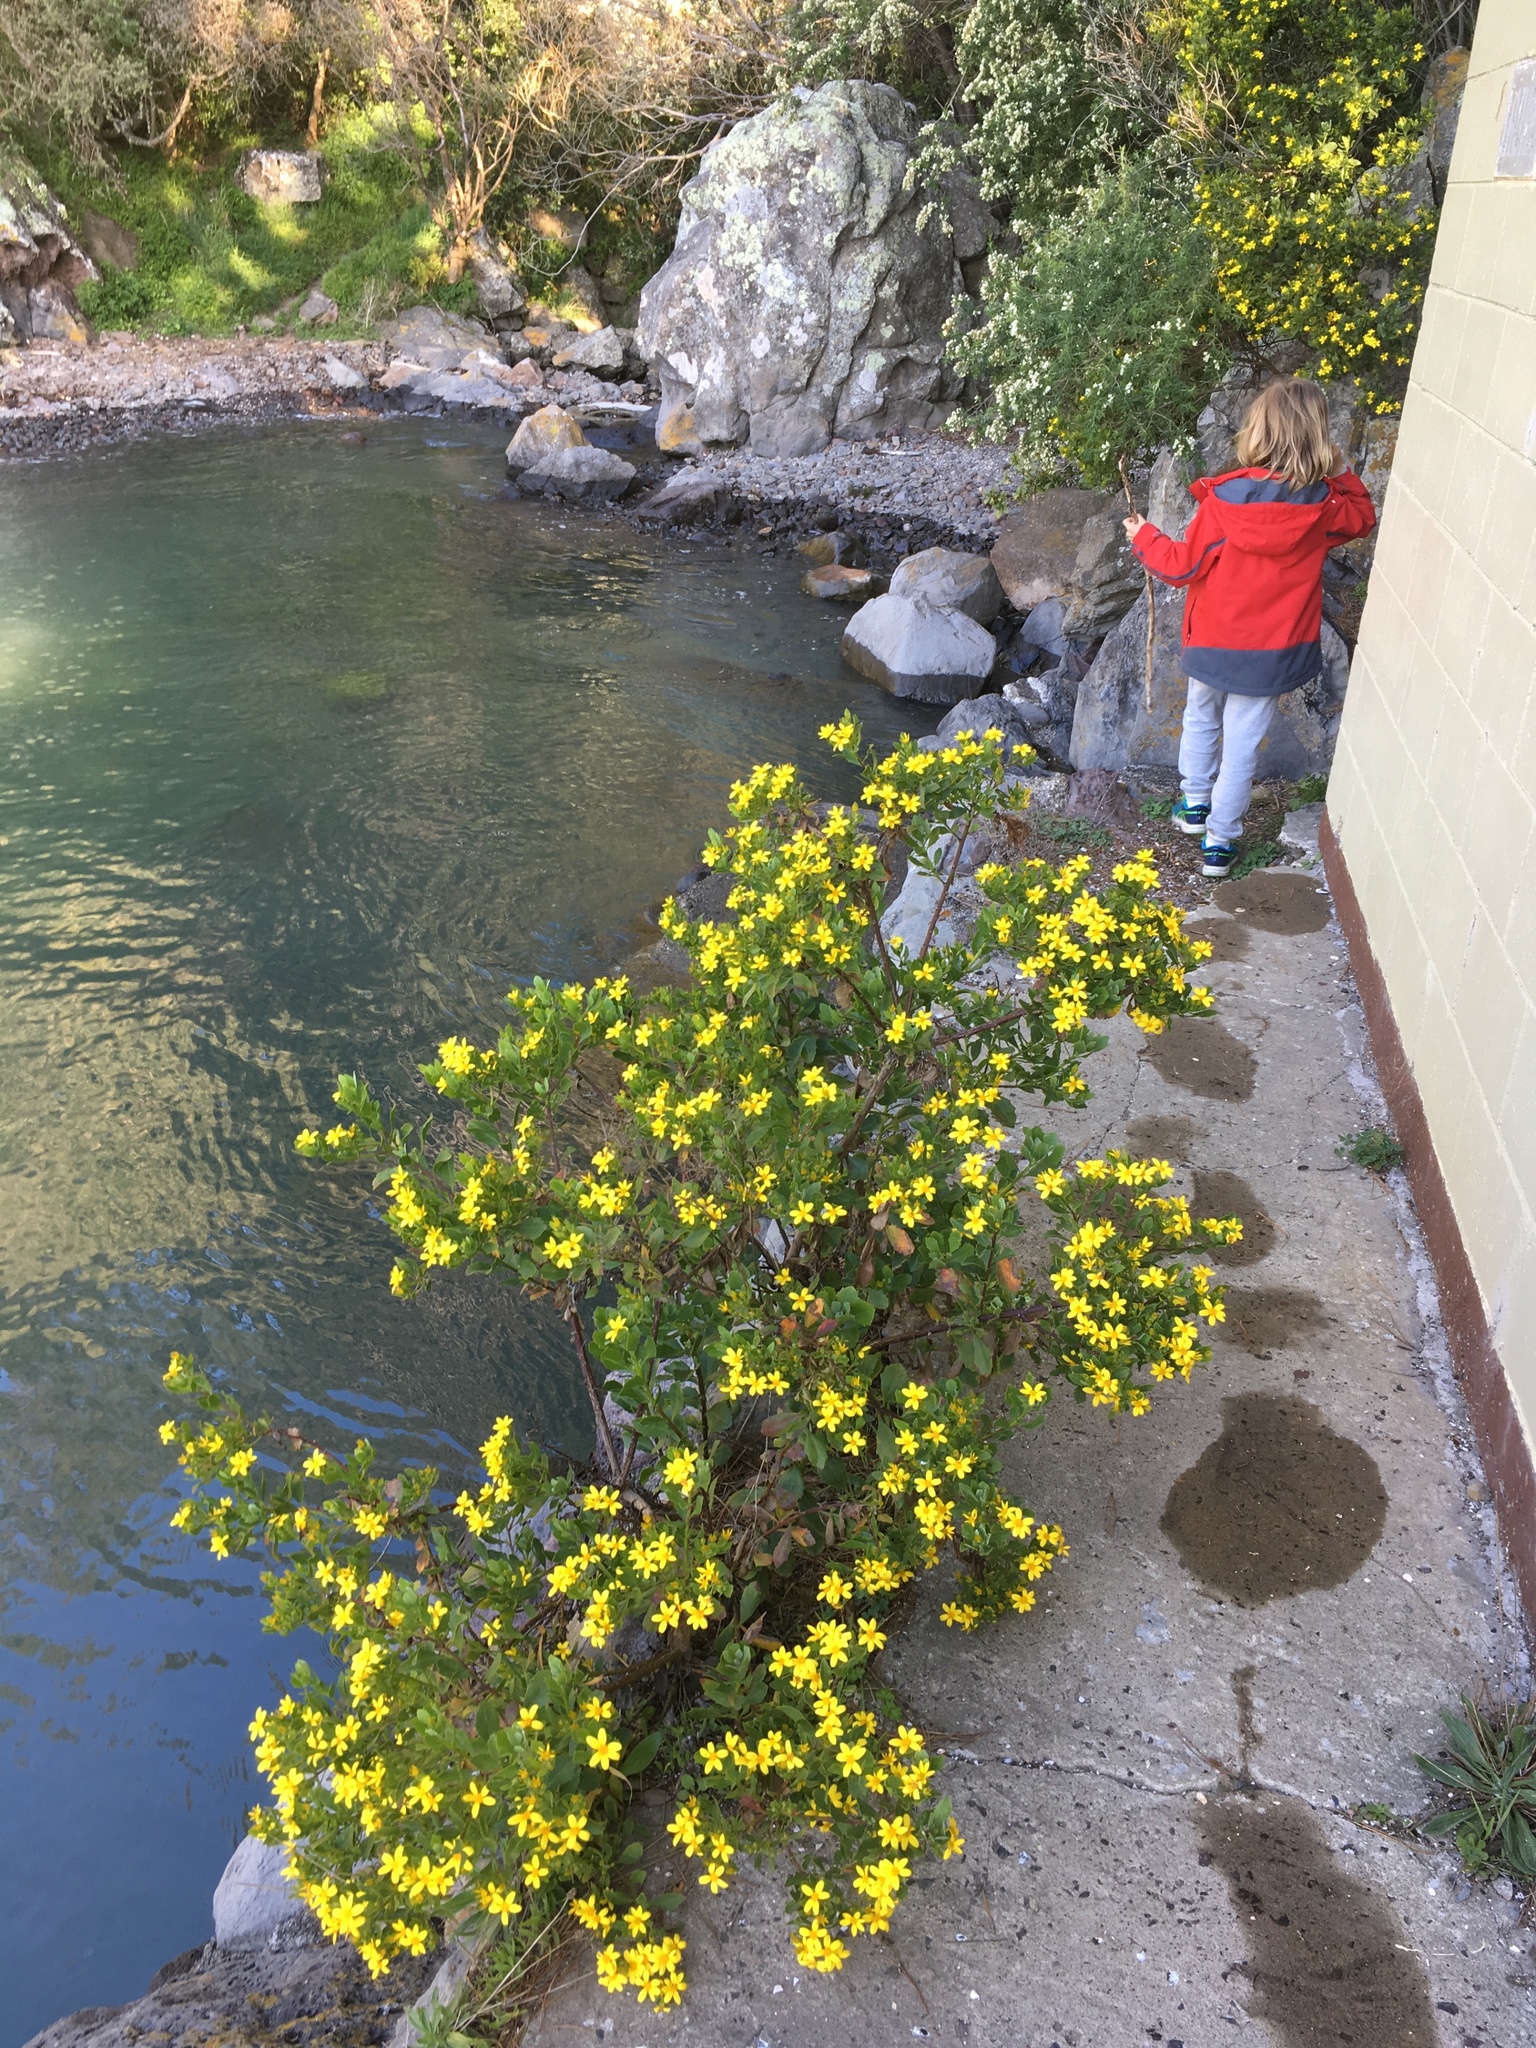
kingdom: Plantae
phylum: Tracheophyta
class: Magnoliopsida
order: Asterales
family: Asteraceae
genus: Osteospermum
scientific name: Osteospermum moniliferum
